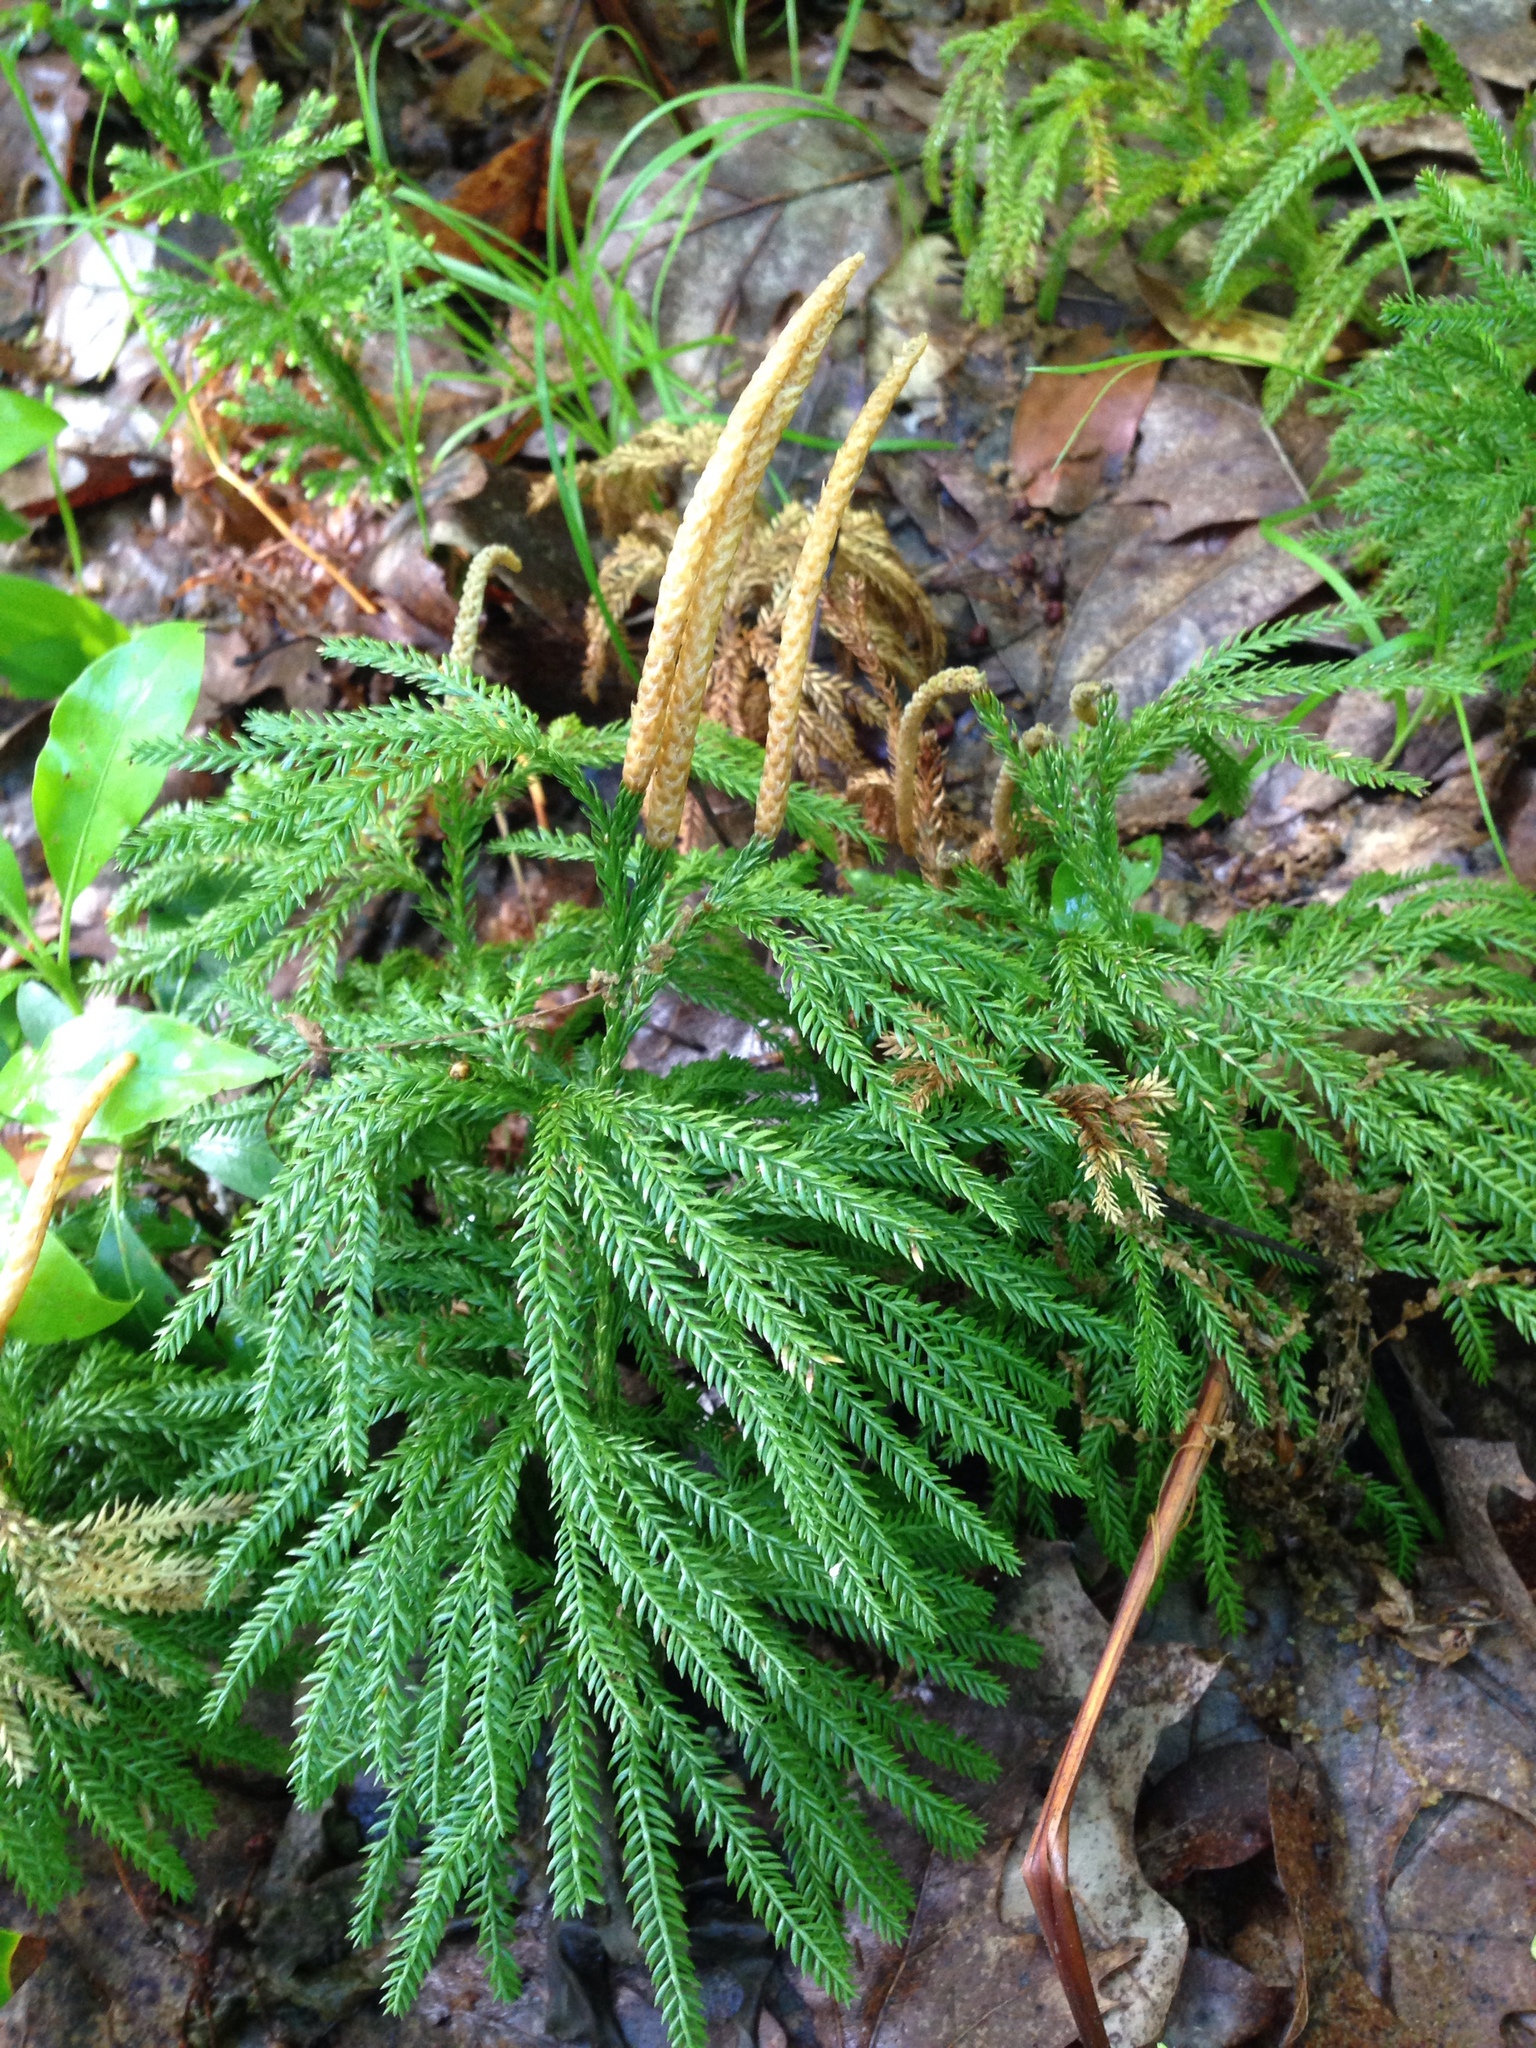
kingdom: Plantae
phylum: Tracheophyta
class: Lycopodiopsida
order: Lycopodiales
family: Lycopodiaceae
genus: Dendrolycopodium
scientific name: Dendrolycopodium obscurum
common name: Common ground-pine
